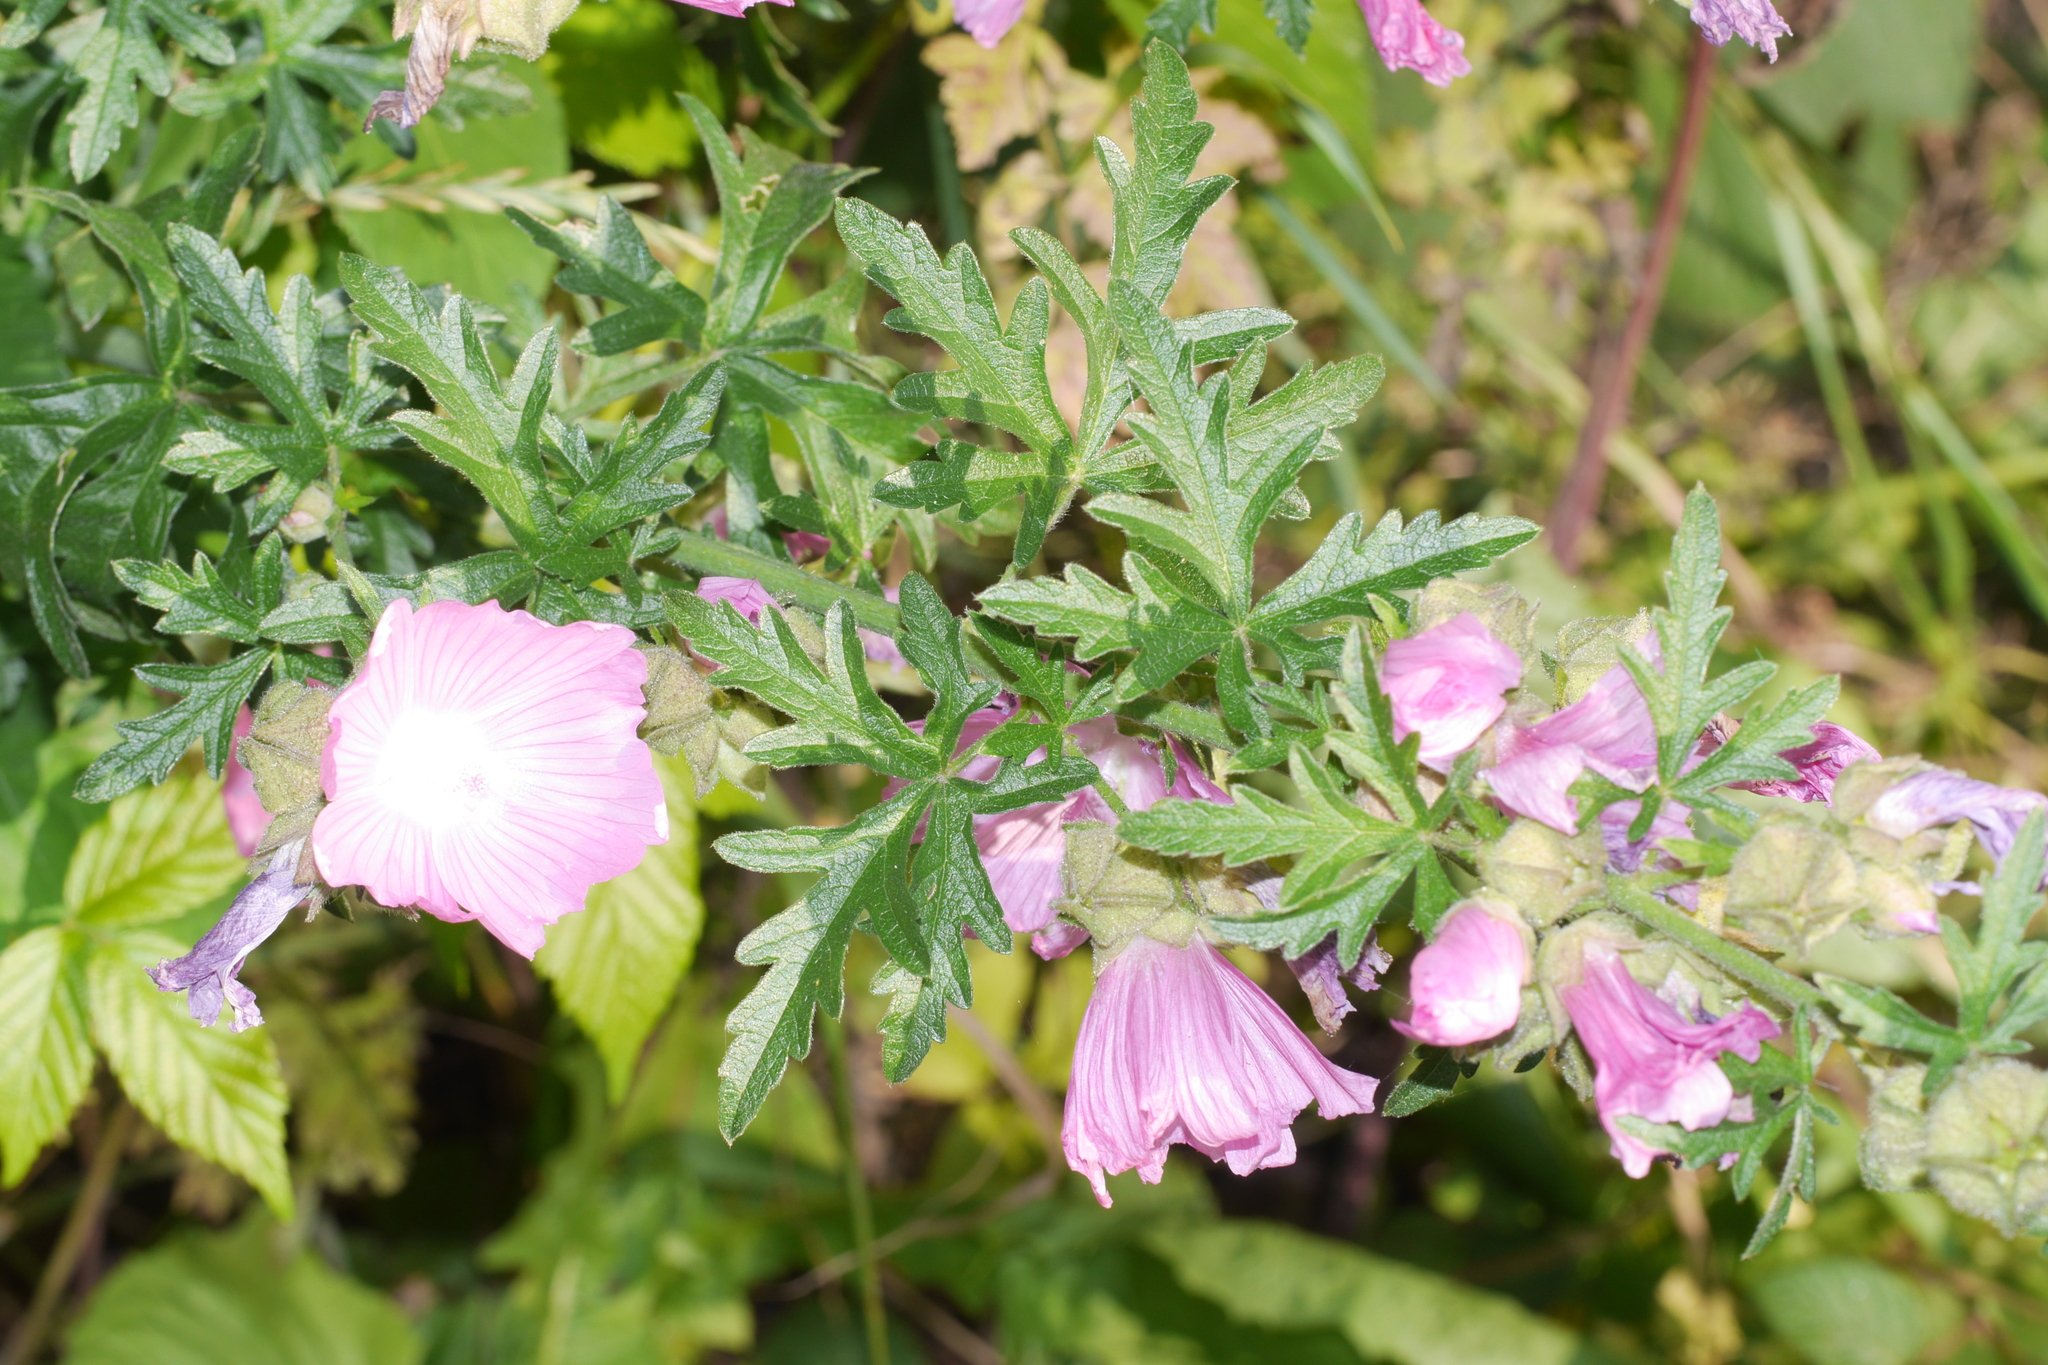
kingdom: Plantae
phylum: Tracheophyta
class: Magnoliopsida
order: Malvales
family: Malvaceae
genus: Malva
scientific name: Malva alcea
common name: Greater musk-mallow
